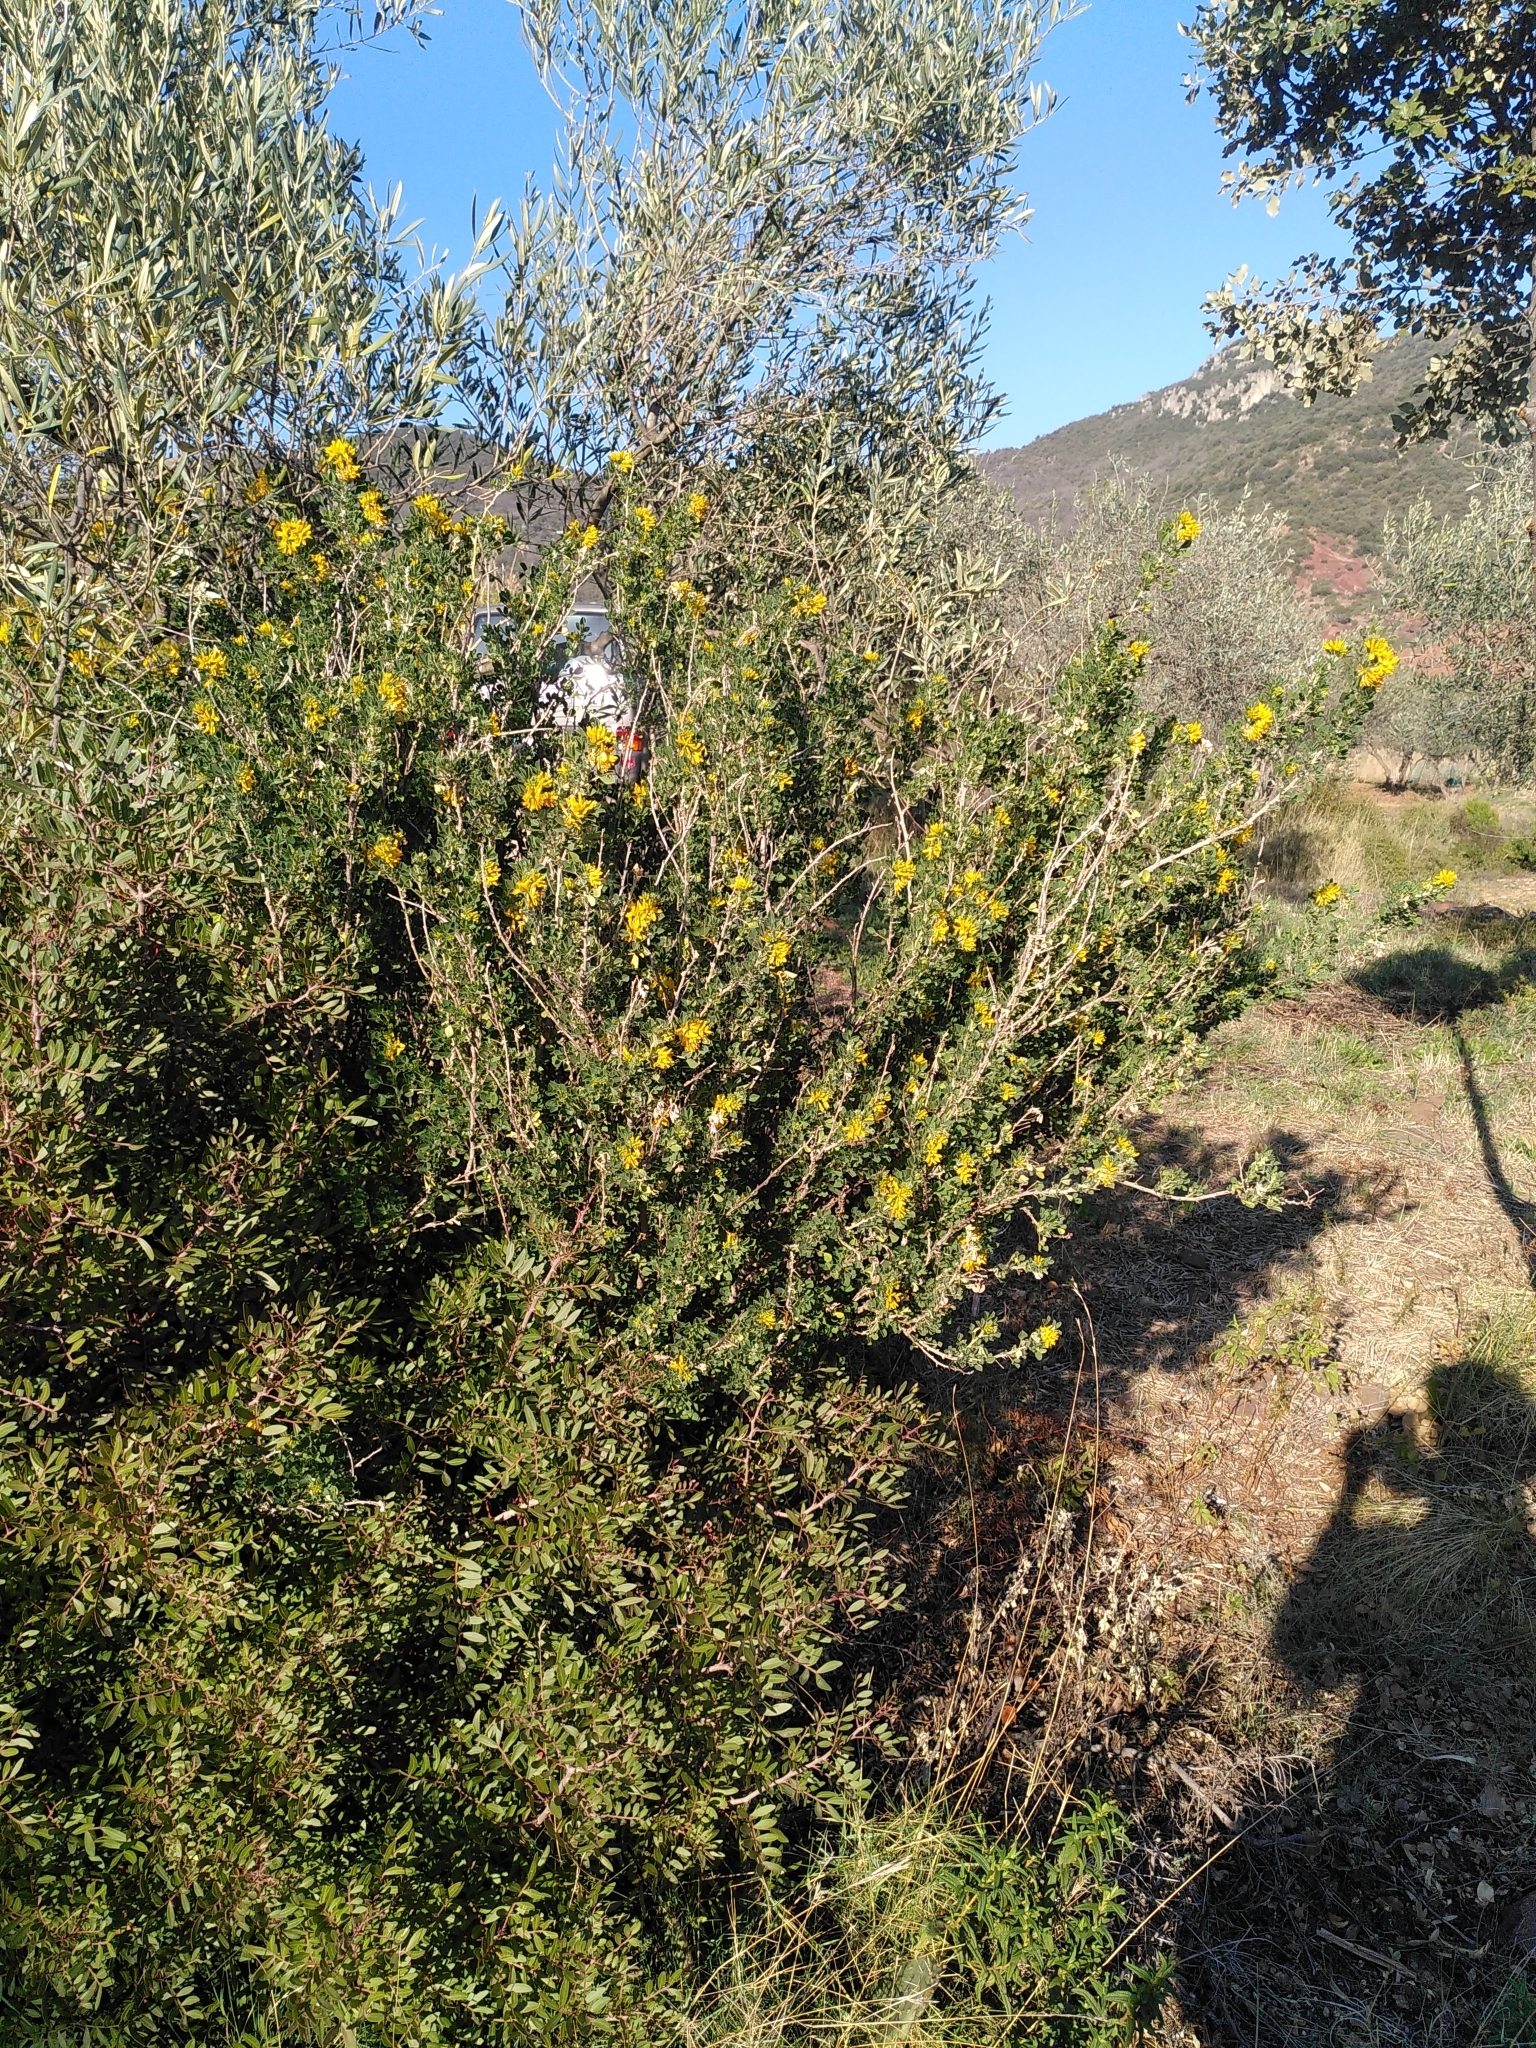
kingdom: Plantae
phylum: Tracheophyta
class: Magnoliopsida
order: Fabales
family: Fabaceae
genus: Medicago
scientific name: Medicago arborea
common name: Moon trefoil
